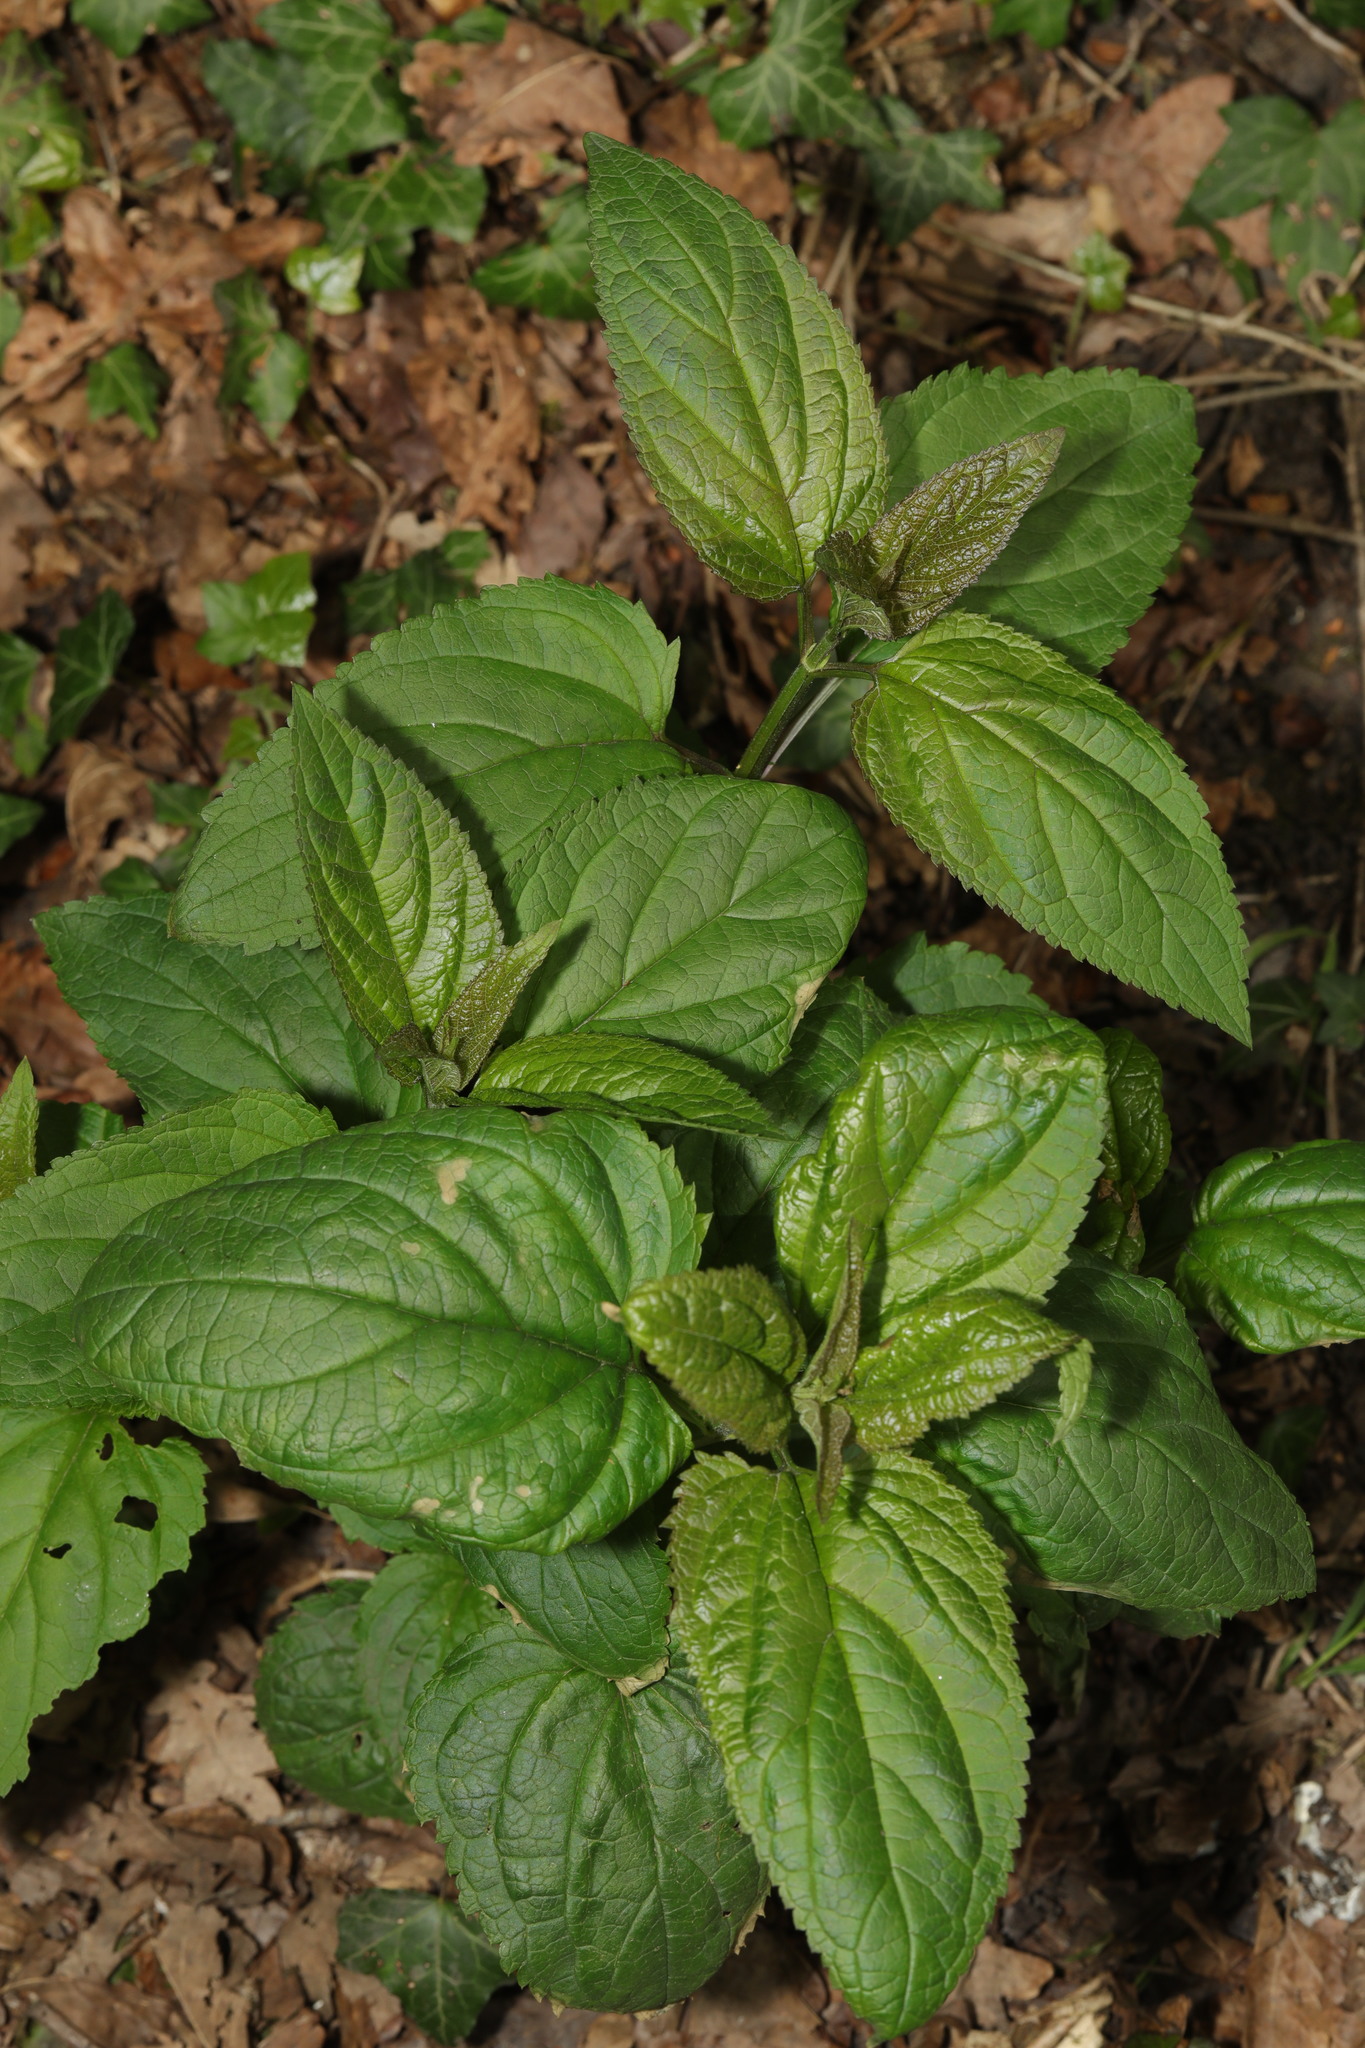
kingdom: Plantae
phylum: Tracheophyta
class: Magnoliopsida
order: Lamiales
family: Scrophulariaceae
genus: Scrophularia
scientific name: Scrophularia nodosa
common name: Common figwort
